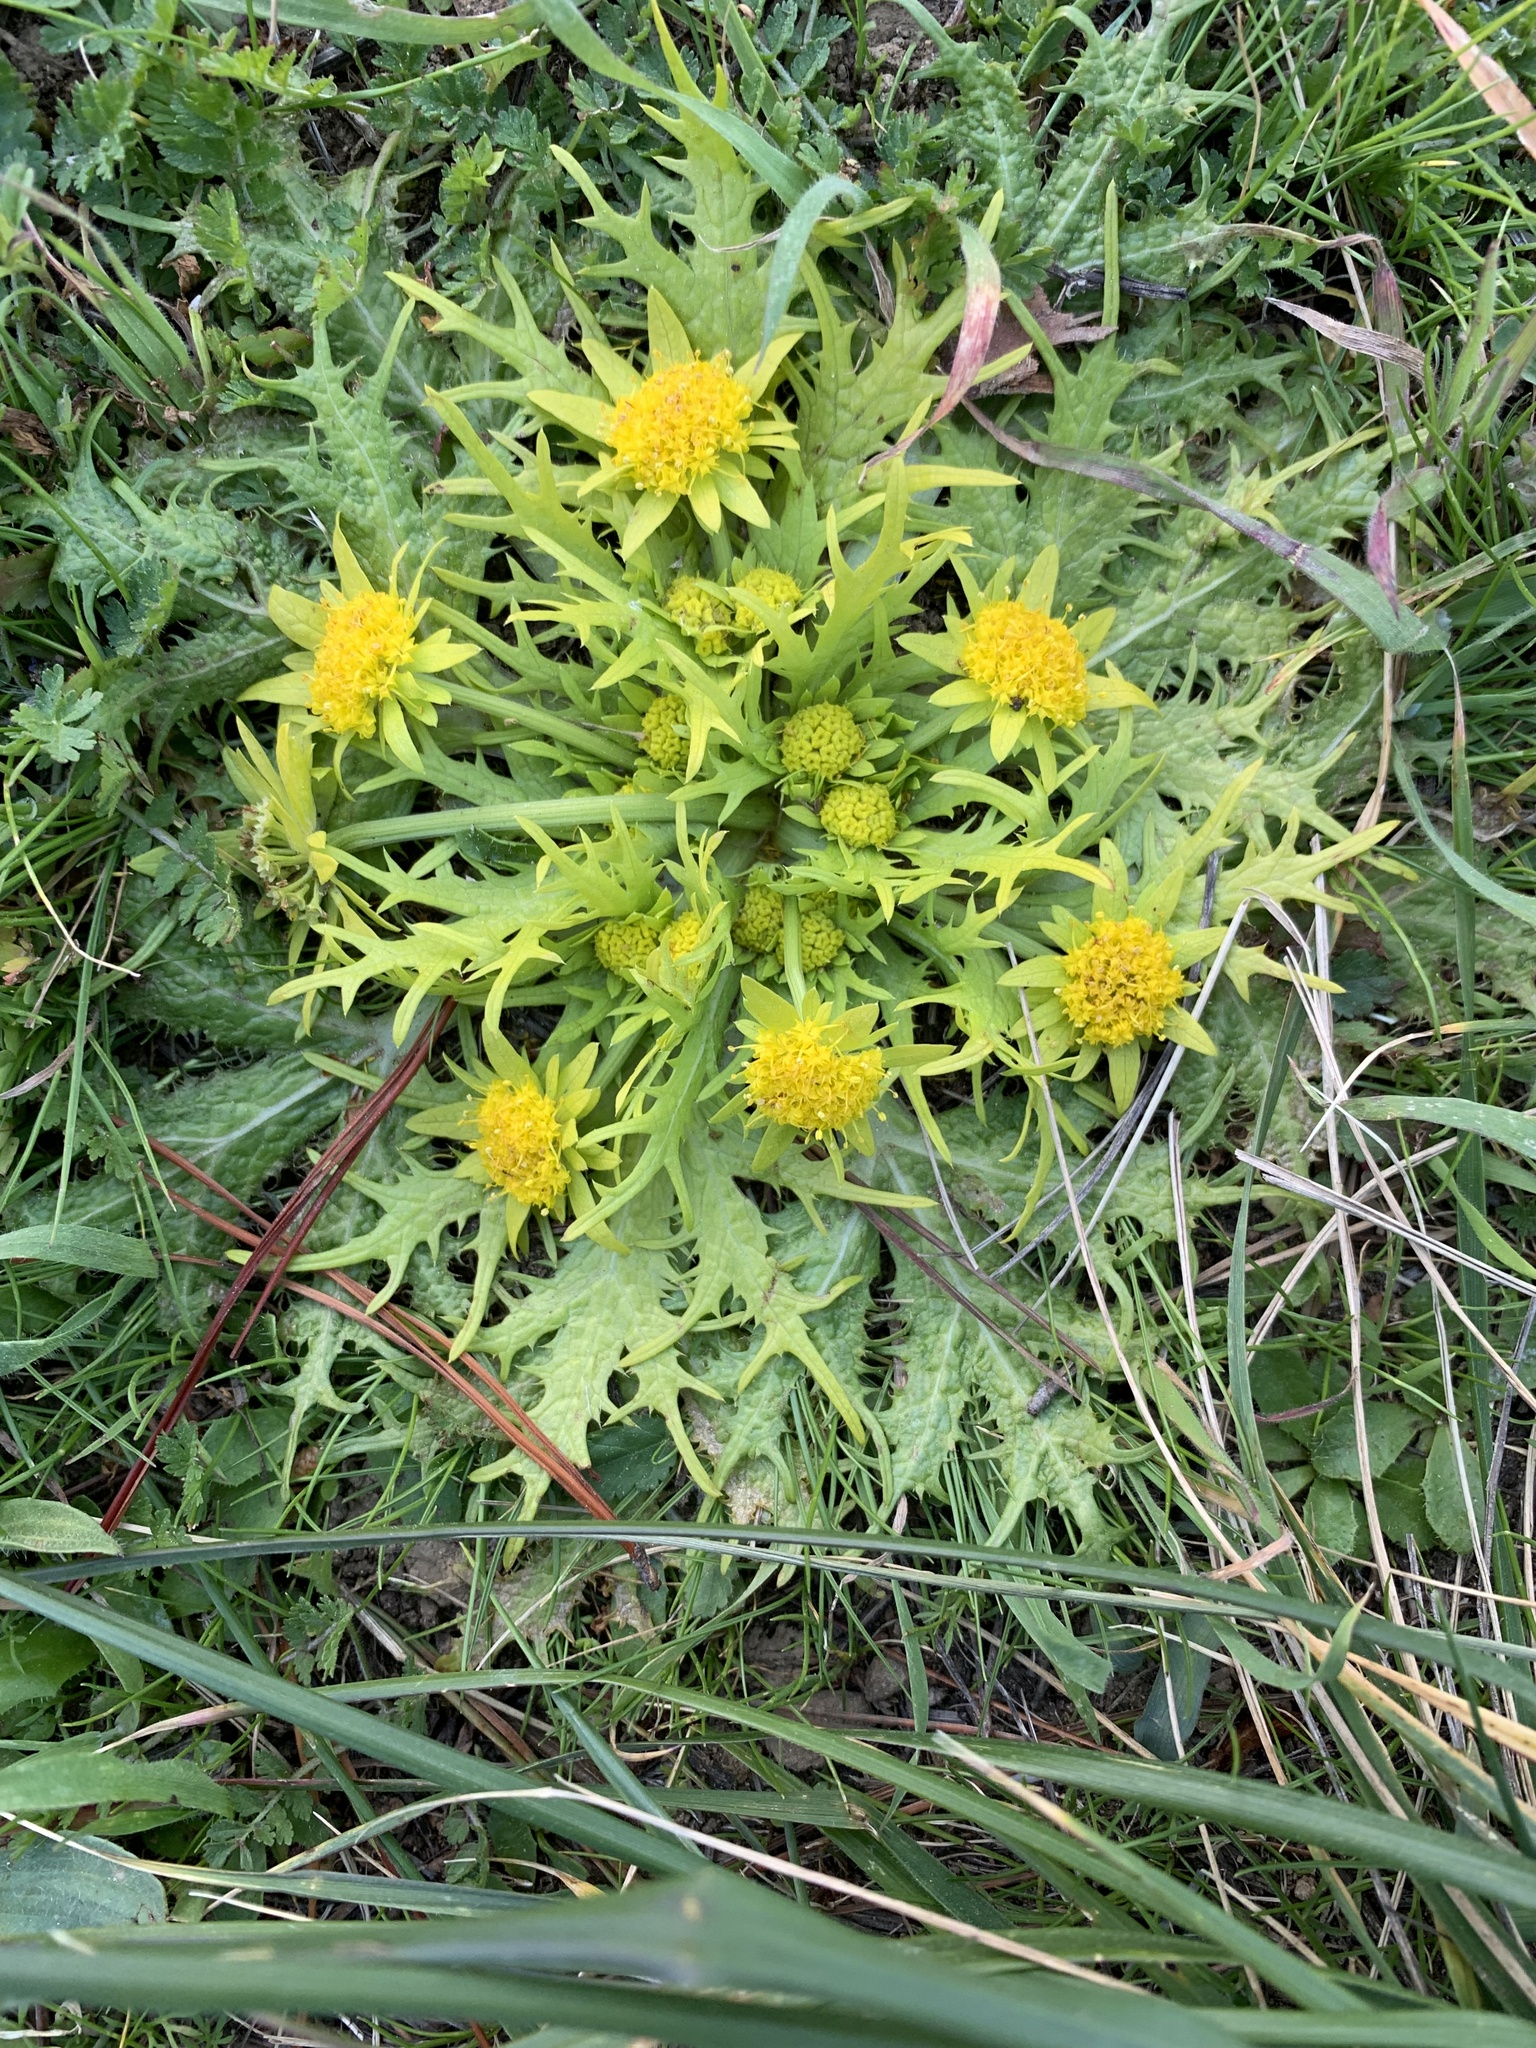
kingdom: Plantae
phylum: Tracheophyta
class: Magnoliopsida
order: Apiales
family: Apiaceae
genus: Sanicula
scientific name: Sanicula arctopoides
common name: Footsteps-of-spring
